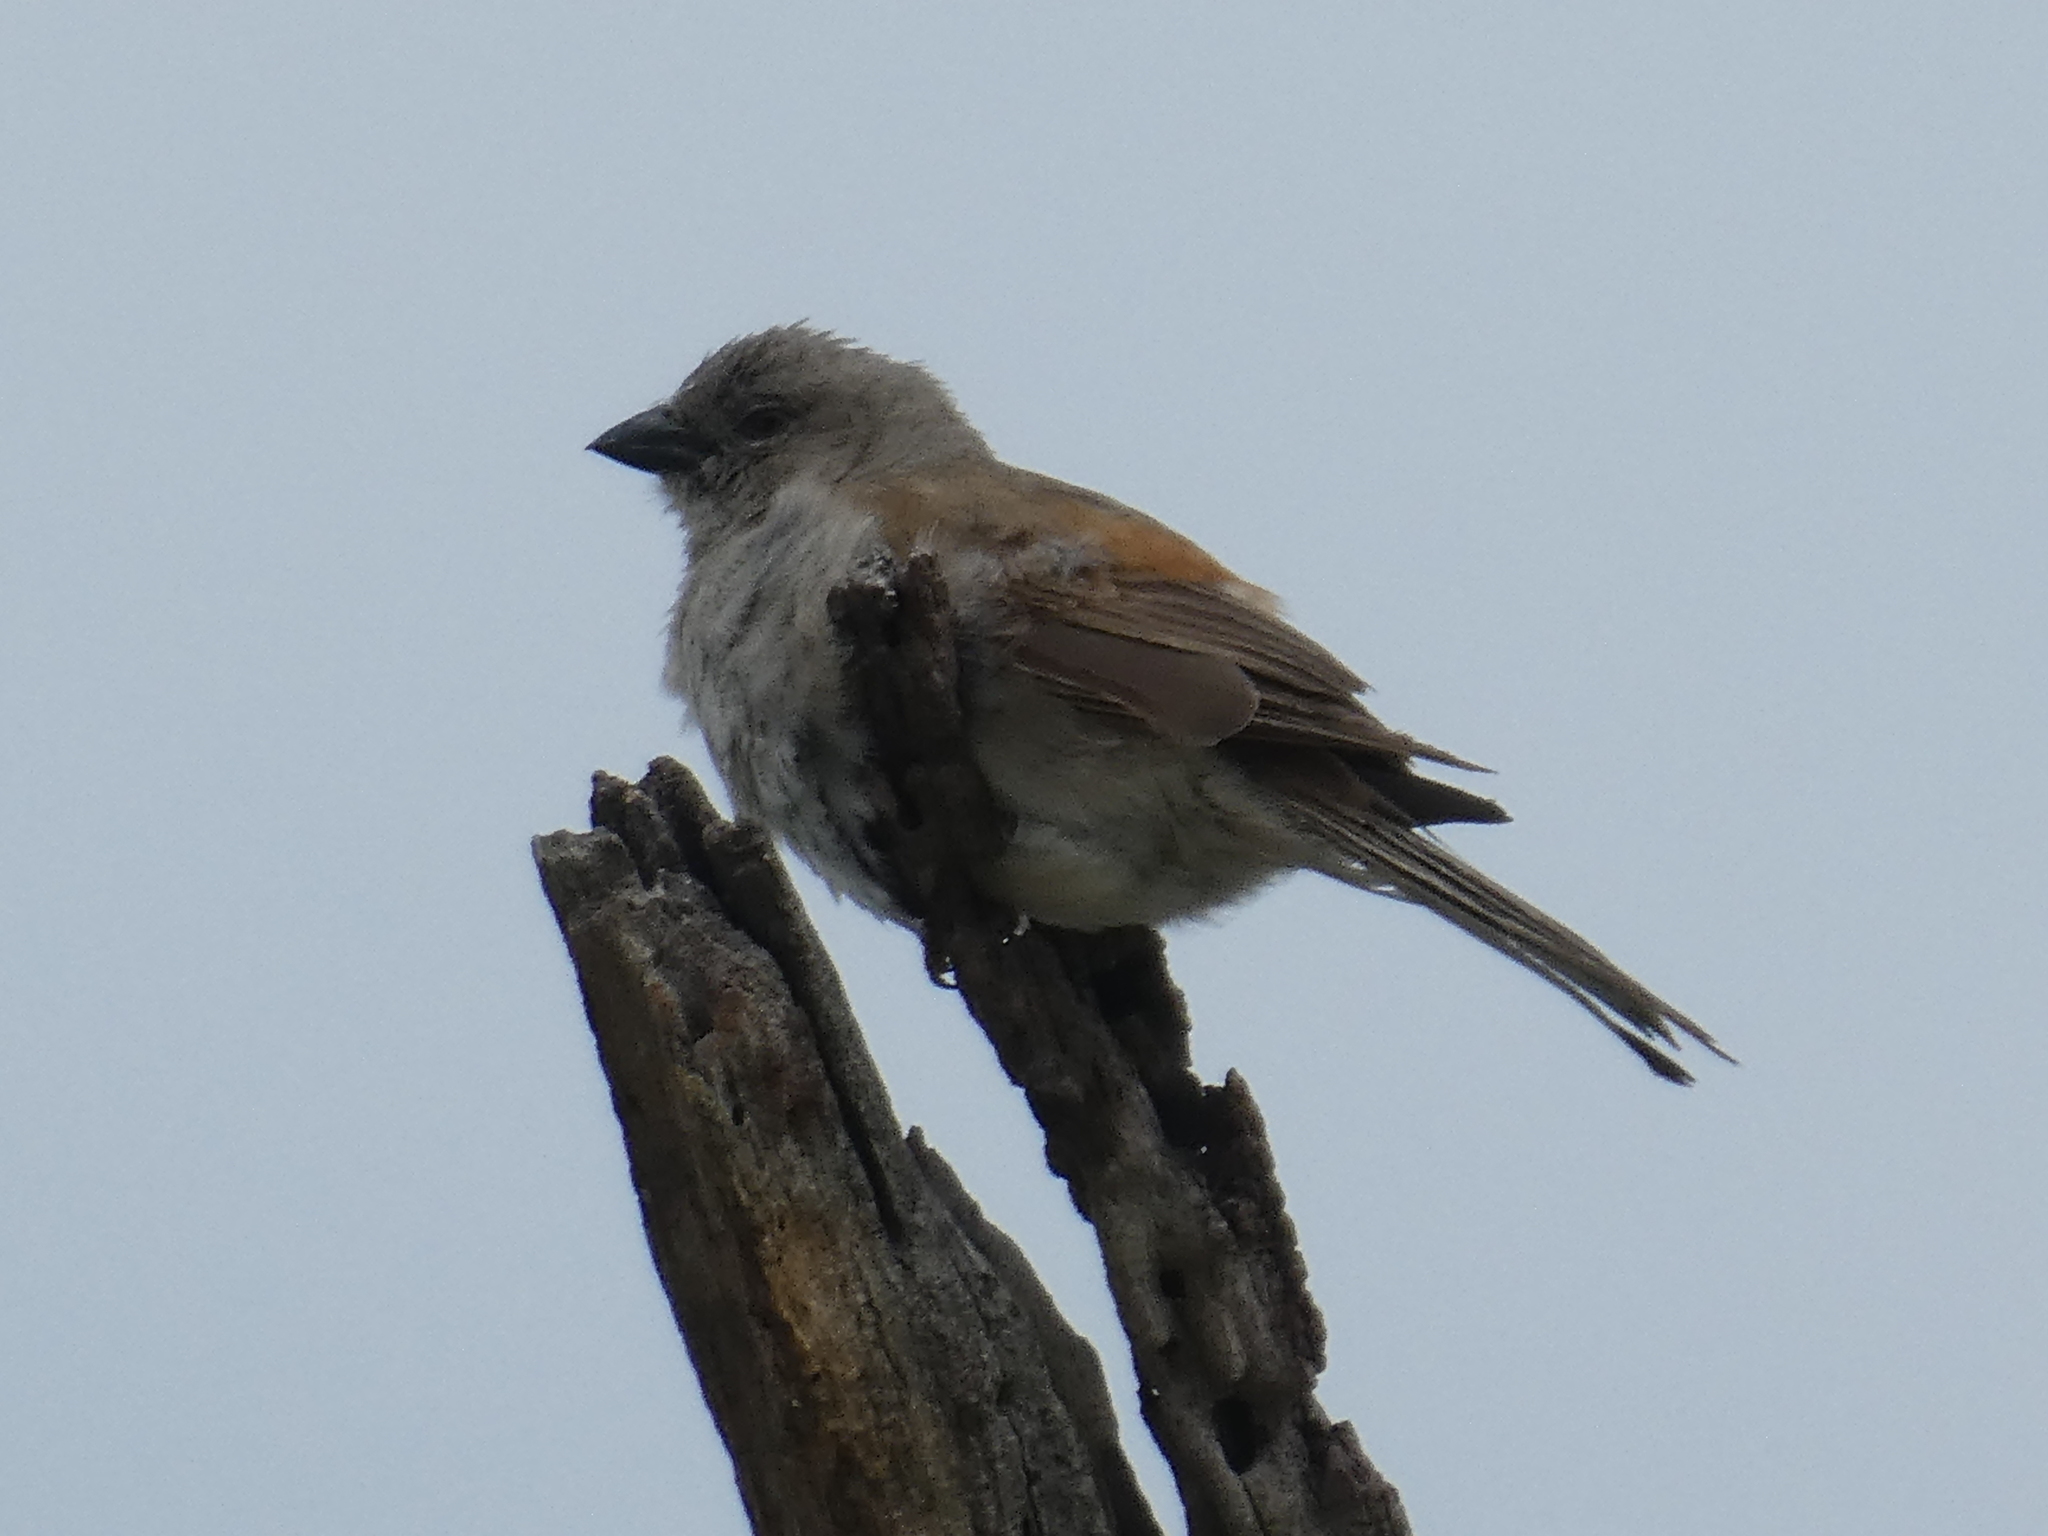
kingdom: Animalia
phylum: Chordata
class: Aves
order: Passeriformes
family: Passeridae
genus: Passer
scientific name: Passer diffusus
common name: Southern grey-headed sparrow
